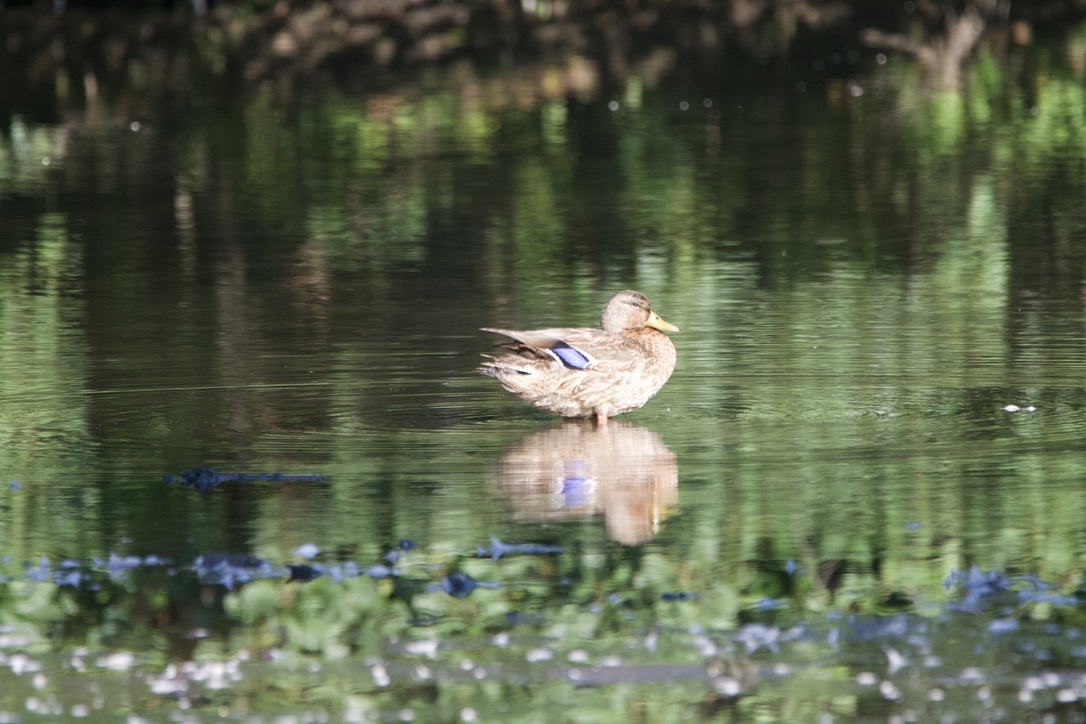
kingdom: Animalia
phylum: Chordata
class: Aves
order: Anseriformes
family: Anatidae
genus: Anas
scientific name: Anas platyrhynchos
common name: Mallard
